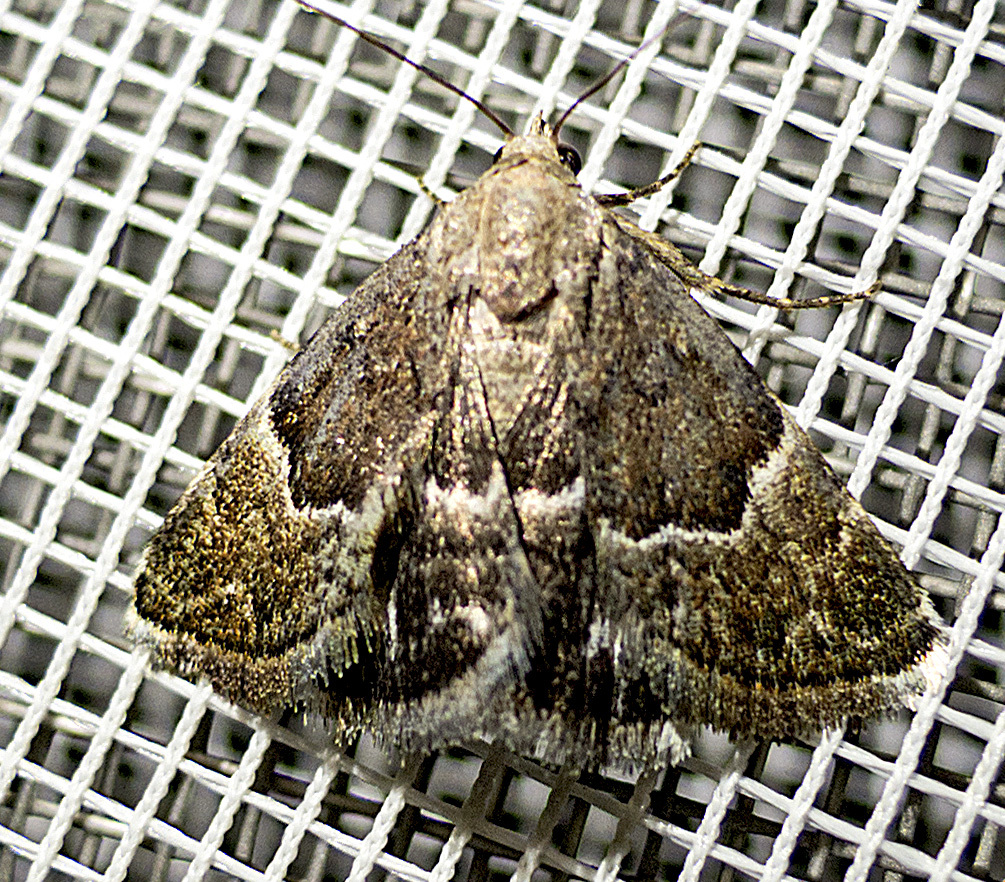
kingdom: Animalia
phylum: Arthropoda
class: Insecta
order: Lepidoptera
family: Noctuidae
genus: Eublemma
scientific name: Eublemma arcuinna
